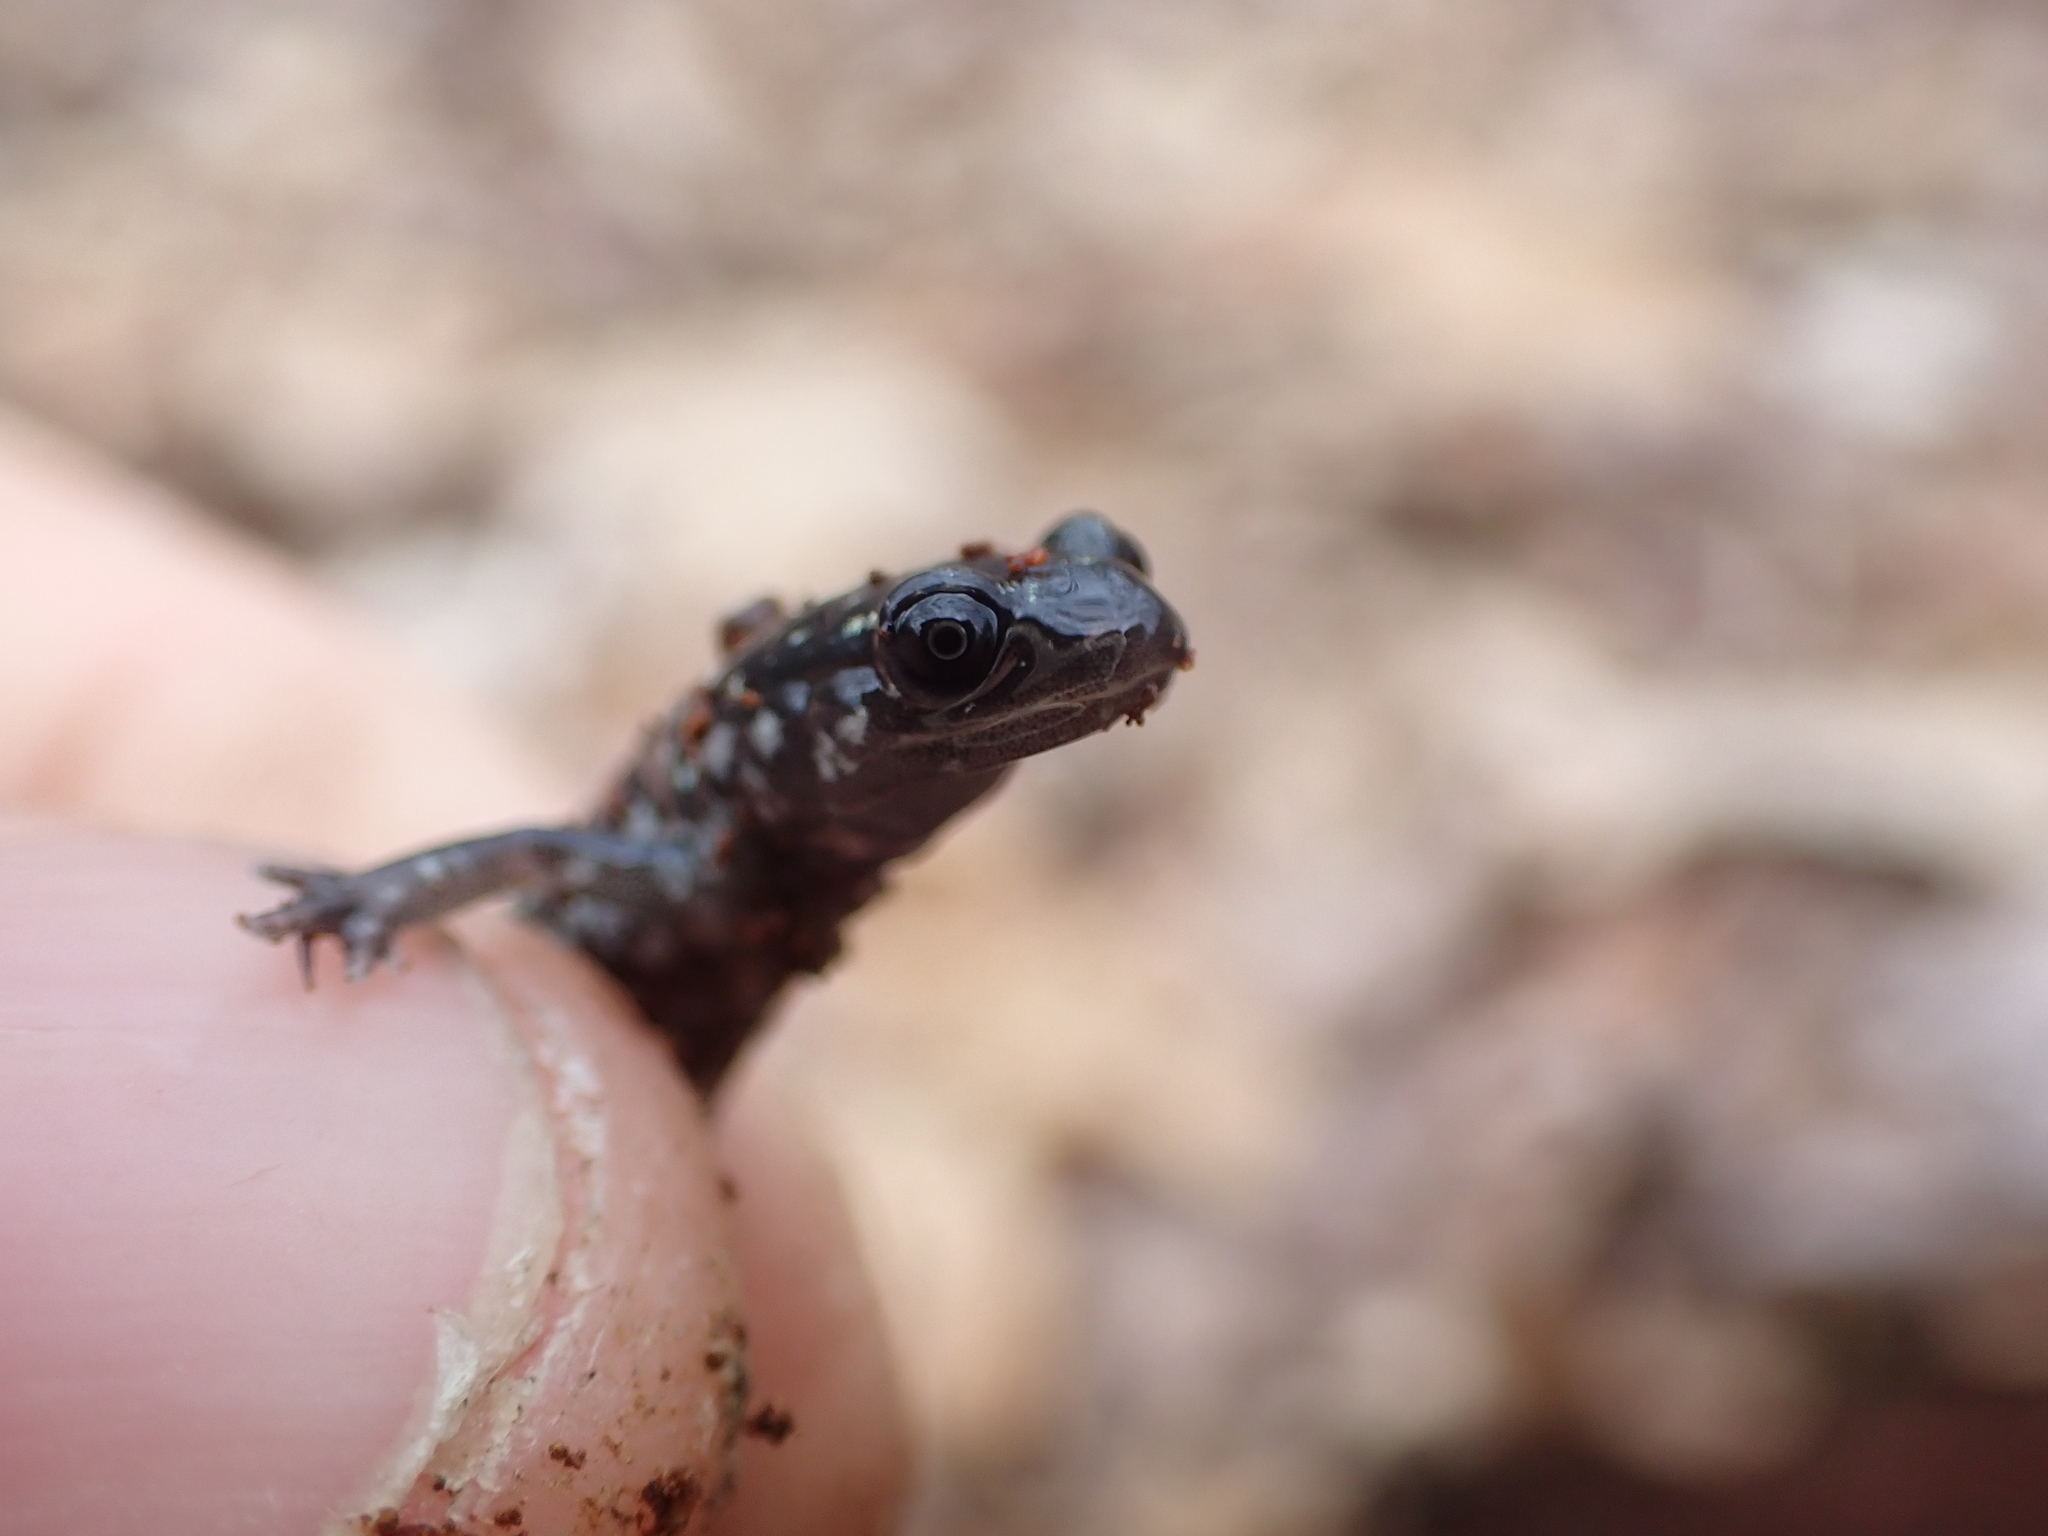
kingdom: Animalia
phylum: Chordata
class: Amphibia
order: Caudata
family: Plethodontidae
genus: Plethodon
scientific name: Plethodon glutinosus
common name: Northern slimy salamander
